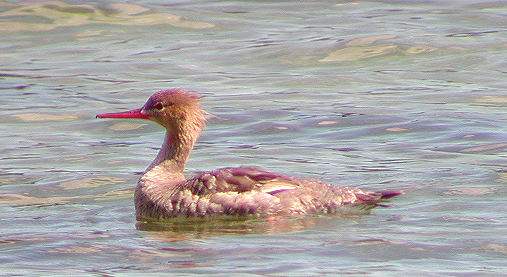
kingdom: Animalia
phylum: Chordata
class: Aves
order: Anseriformes
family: Anatidae
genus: Mergus
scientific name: Mergus serrator
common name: Red-breasted merganser
